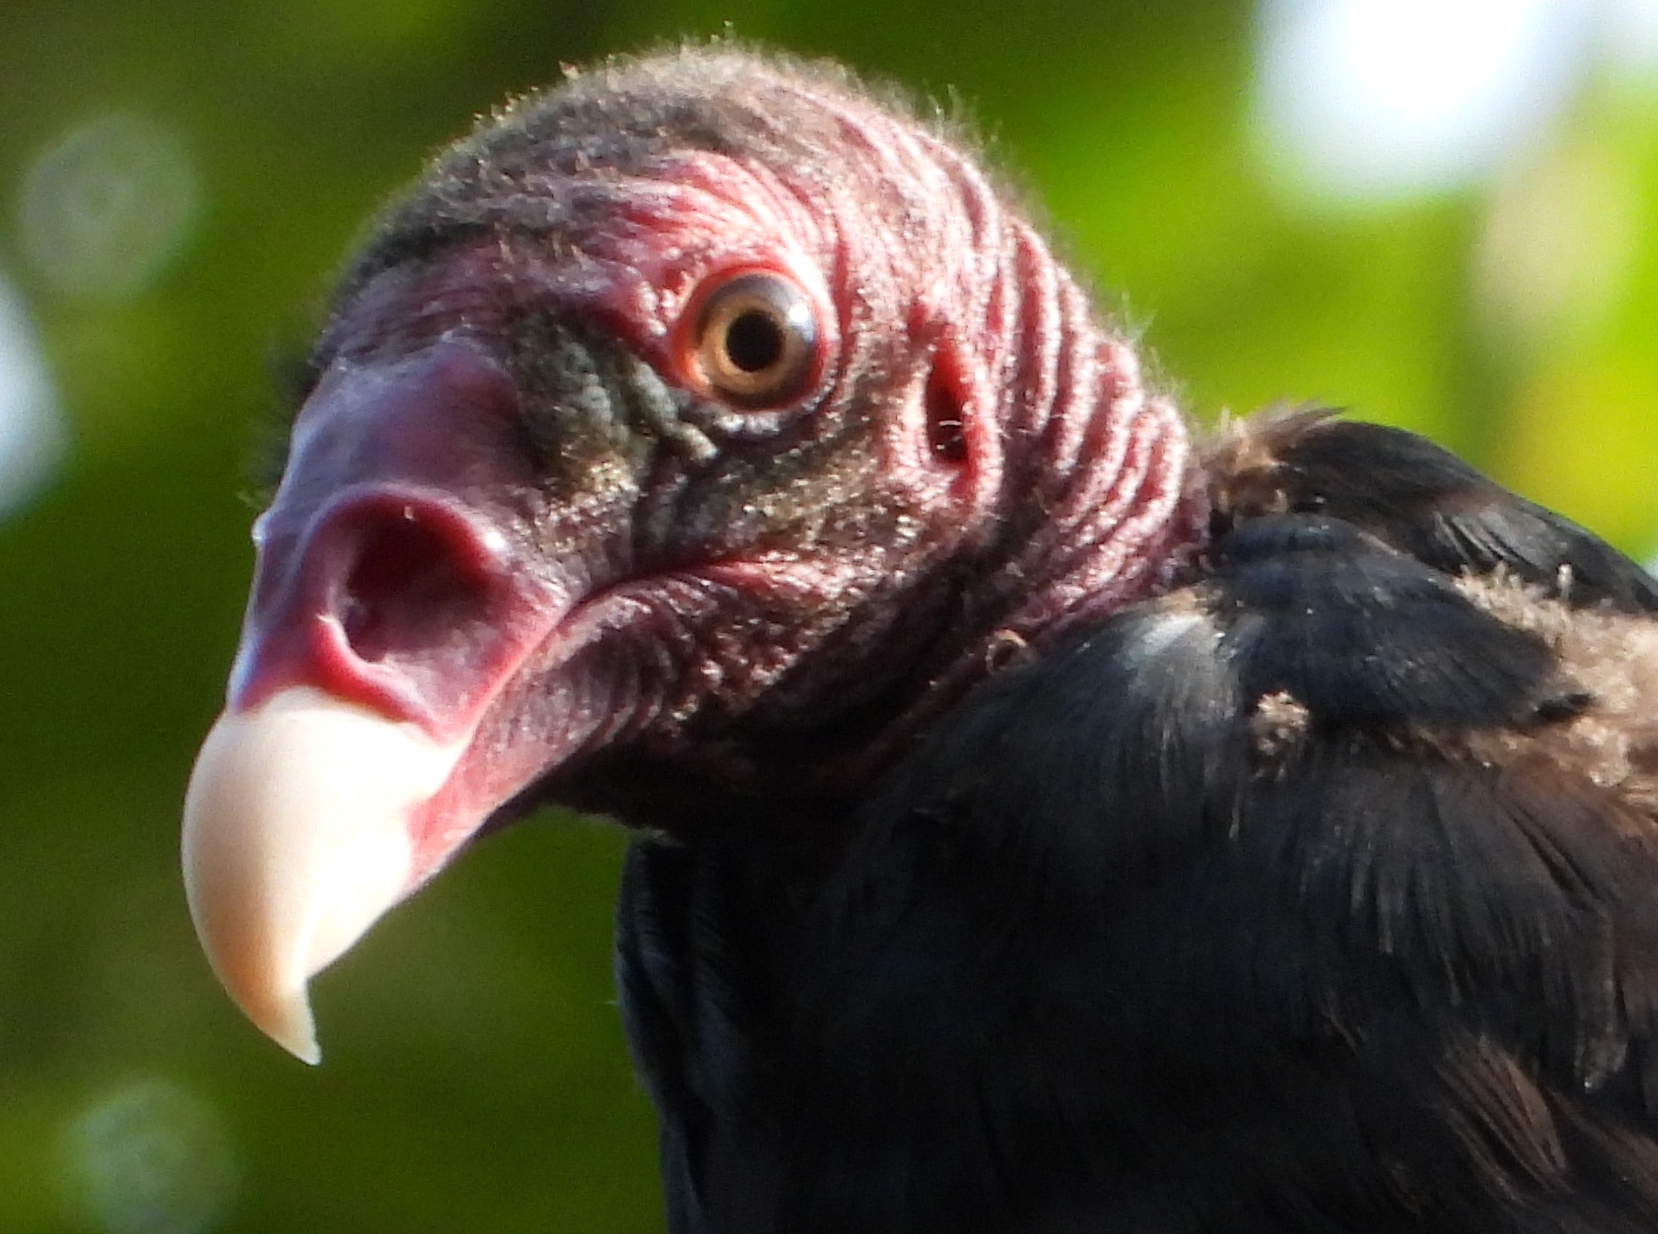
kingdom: Animalia
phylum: Chordata
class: Aves
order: Accipitriformes
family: Cathartidae
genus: Cathartes
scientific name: Cathartes aura
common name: Turkey vulture
